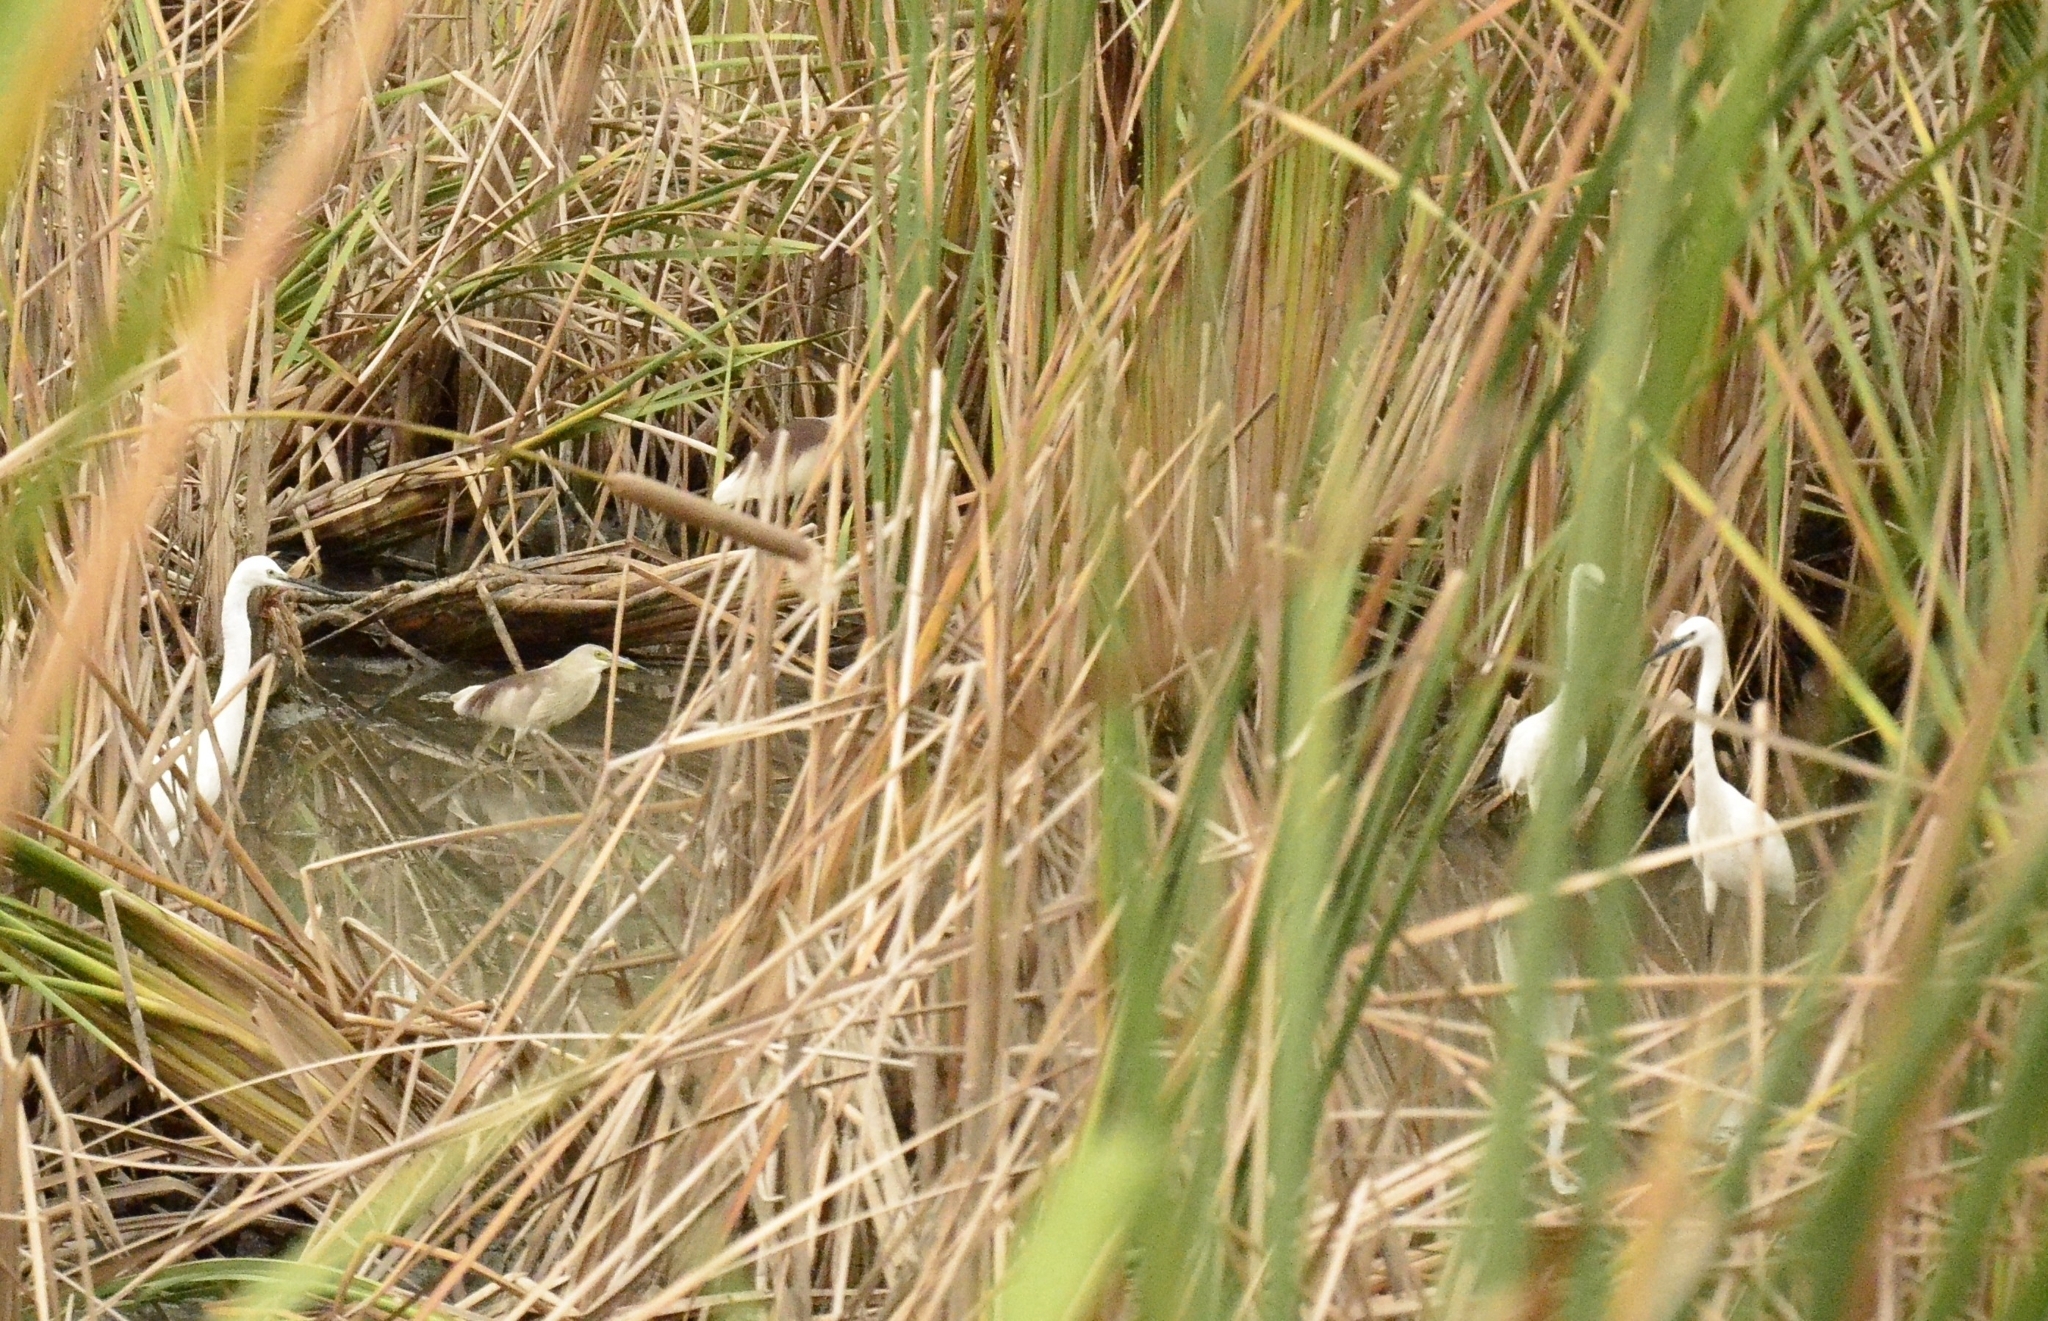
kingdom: Animalia
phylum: Chordata
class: Aves
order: Pelecaniformes
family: Ardeidae
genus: Egretta
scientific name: Egretta garzetta
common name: Little egret
